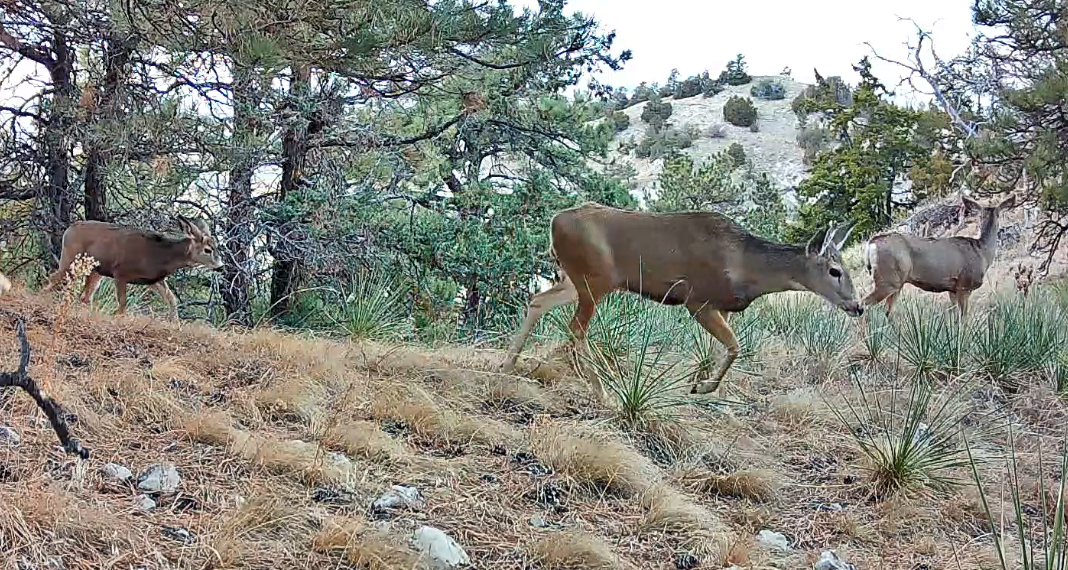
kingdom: Animalia
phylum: Chordata
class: Mammalia
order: Artiodactyla
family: Cervidae
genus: Odocoileus
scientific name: Odocoileus hemionus
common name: Mule deer
